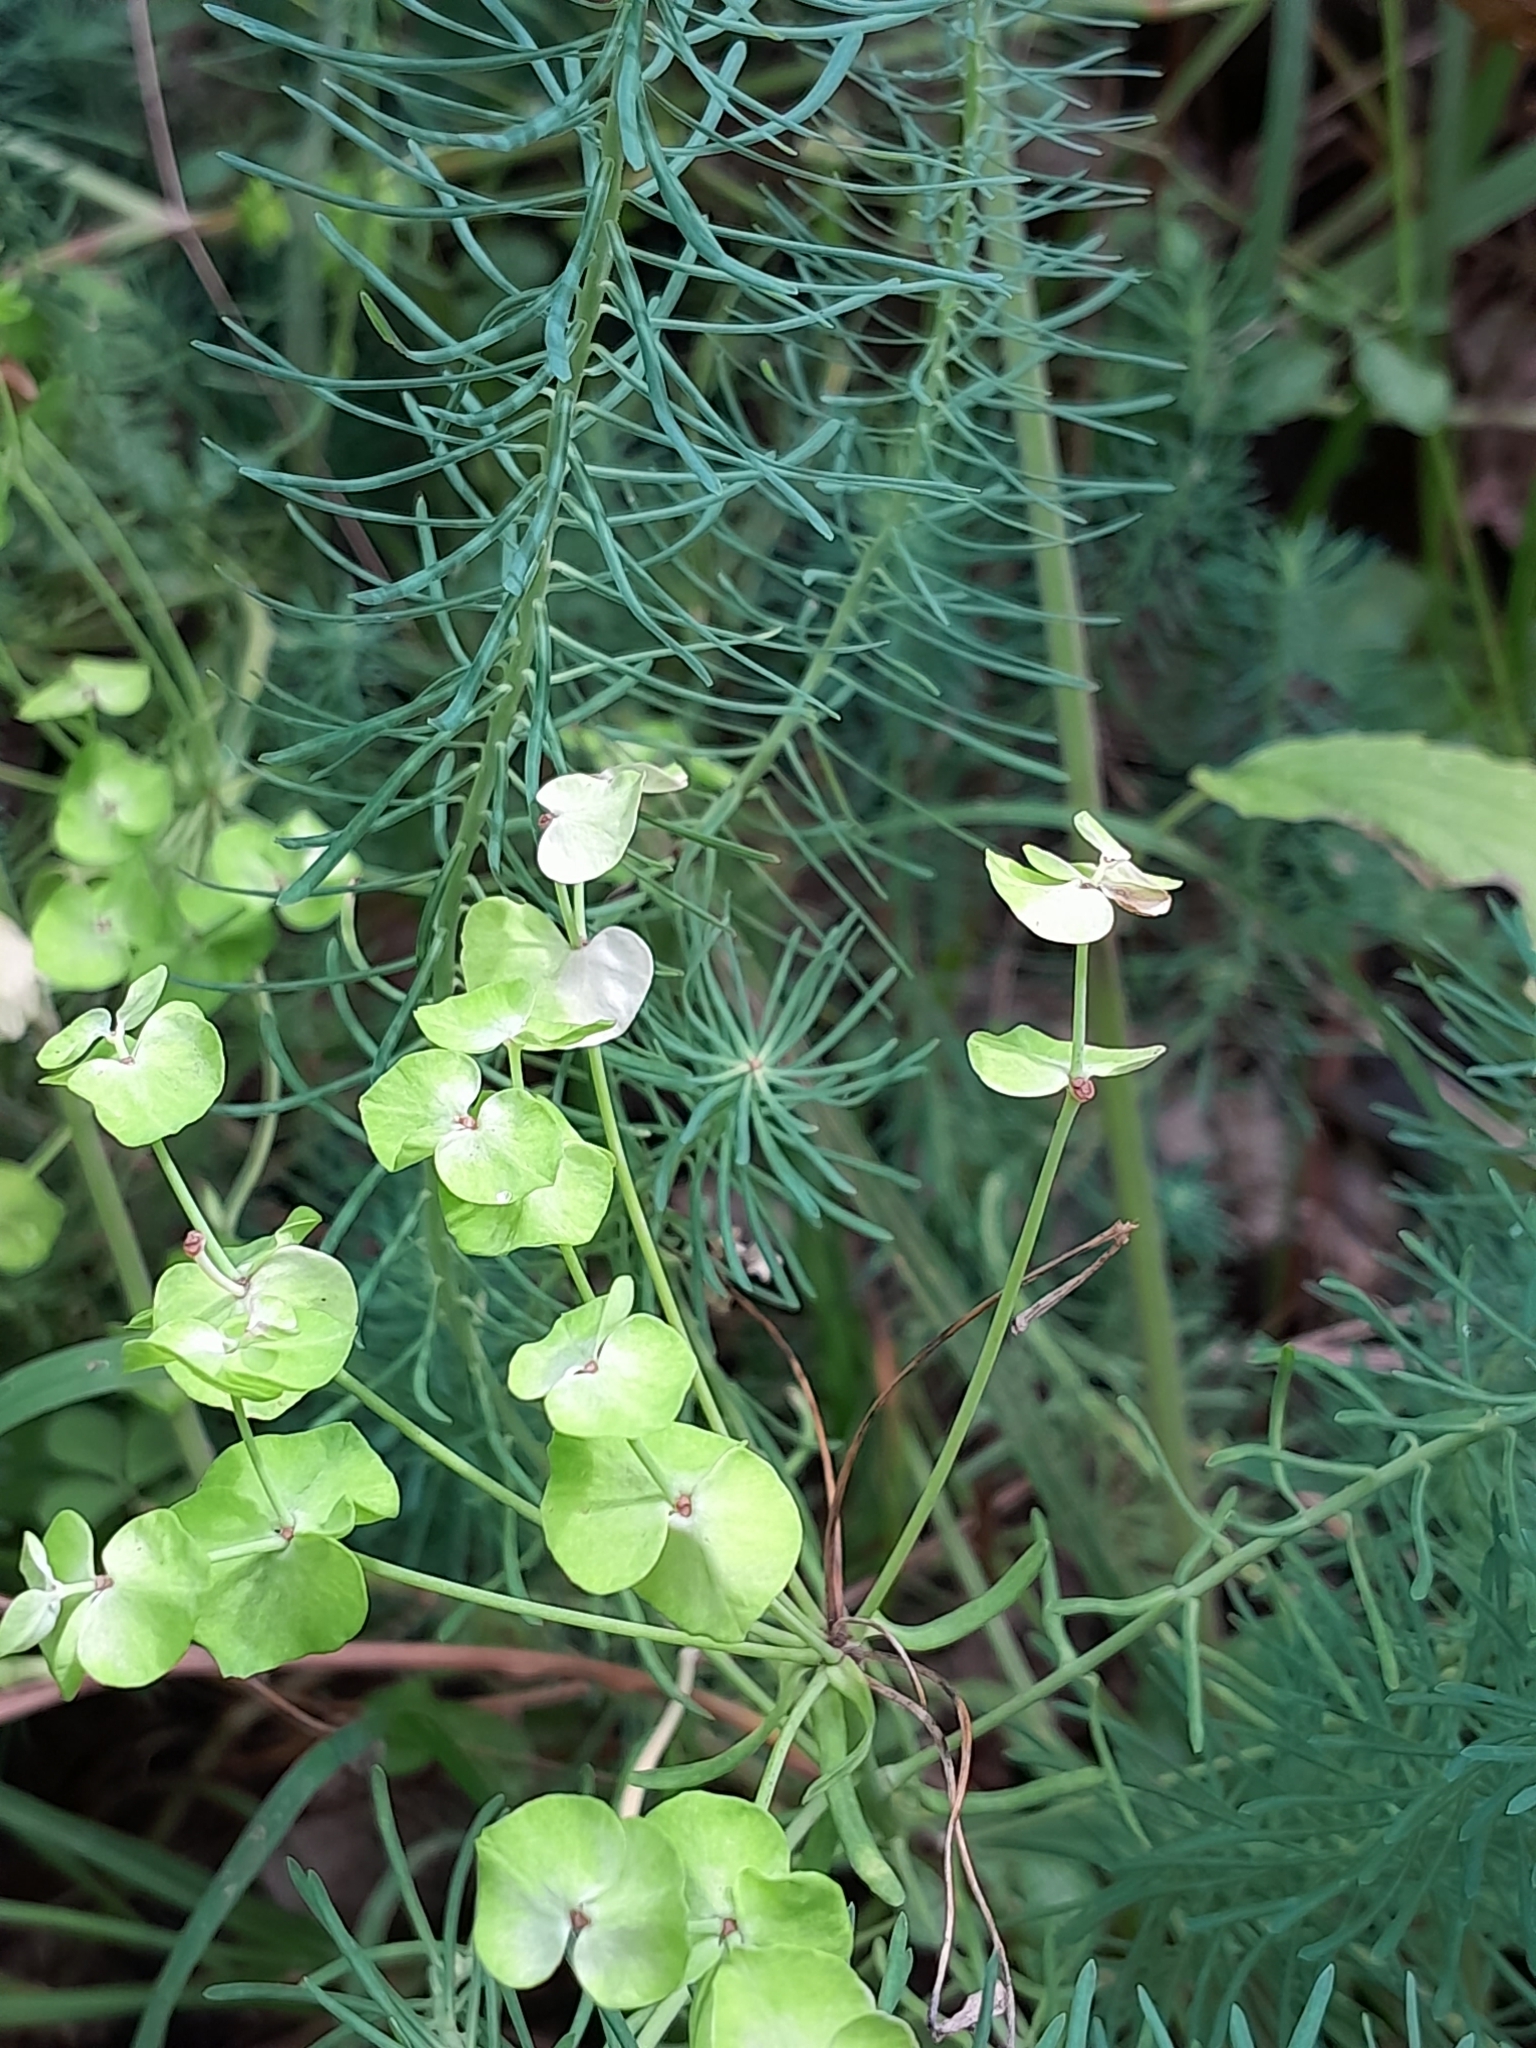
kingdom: Plantae
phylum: Tracheophyta
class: Magnoliopsida
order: Malpighiales
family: Euphorbiaceae
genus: Euphorbia
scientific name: Euphorbia cyparissias
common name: Cypress spurge
